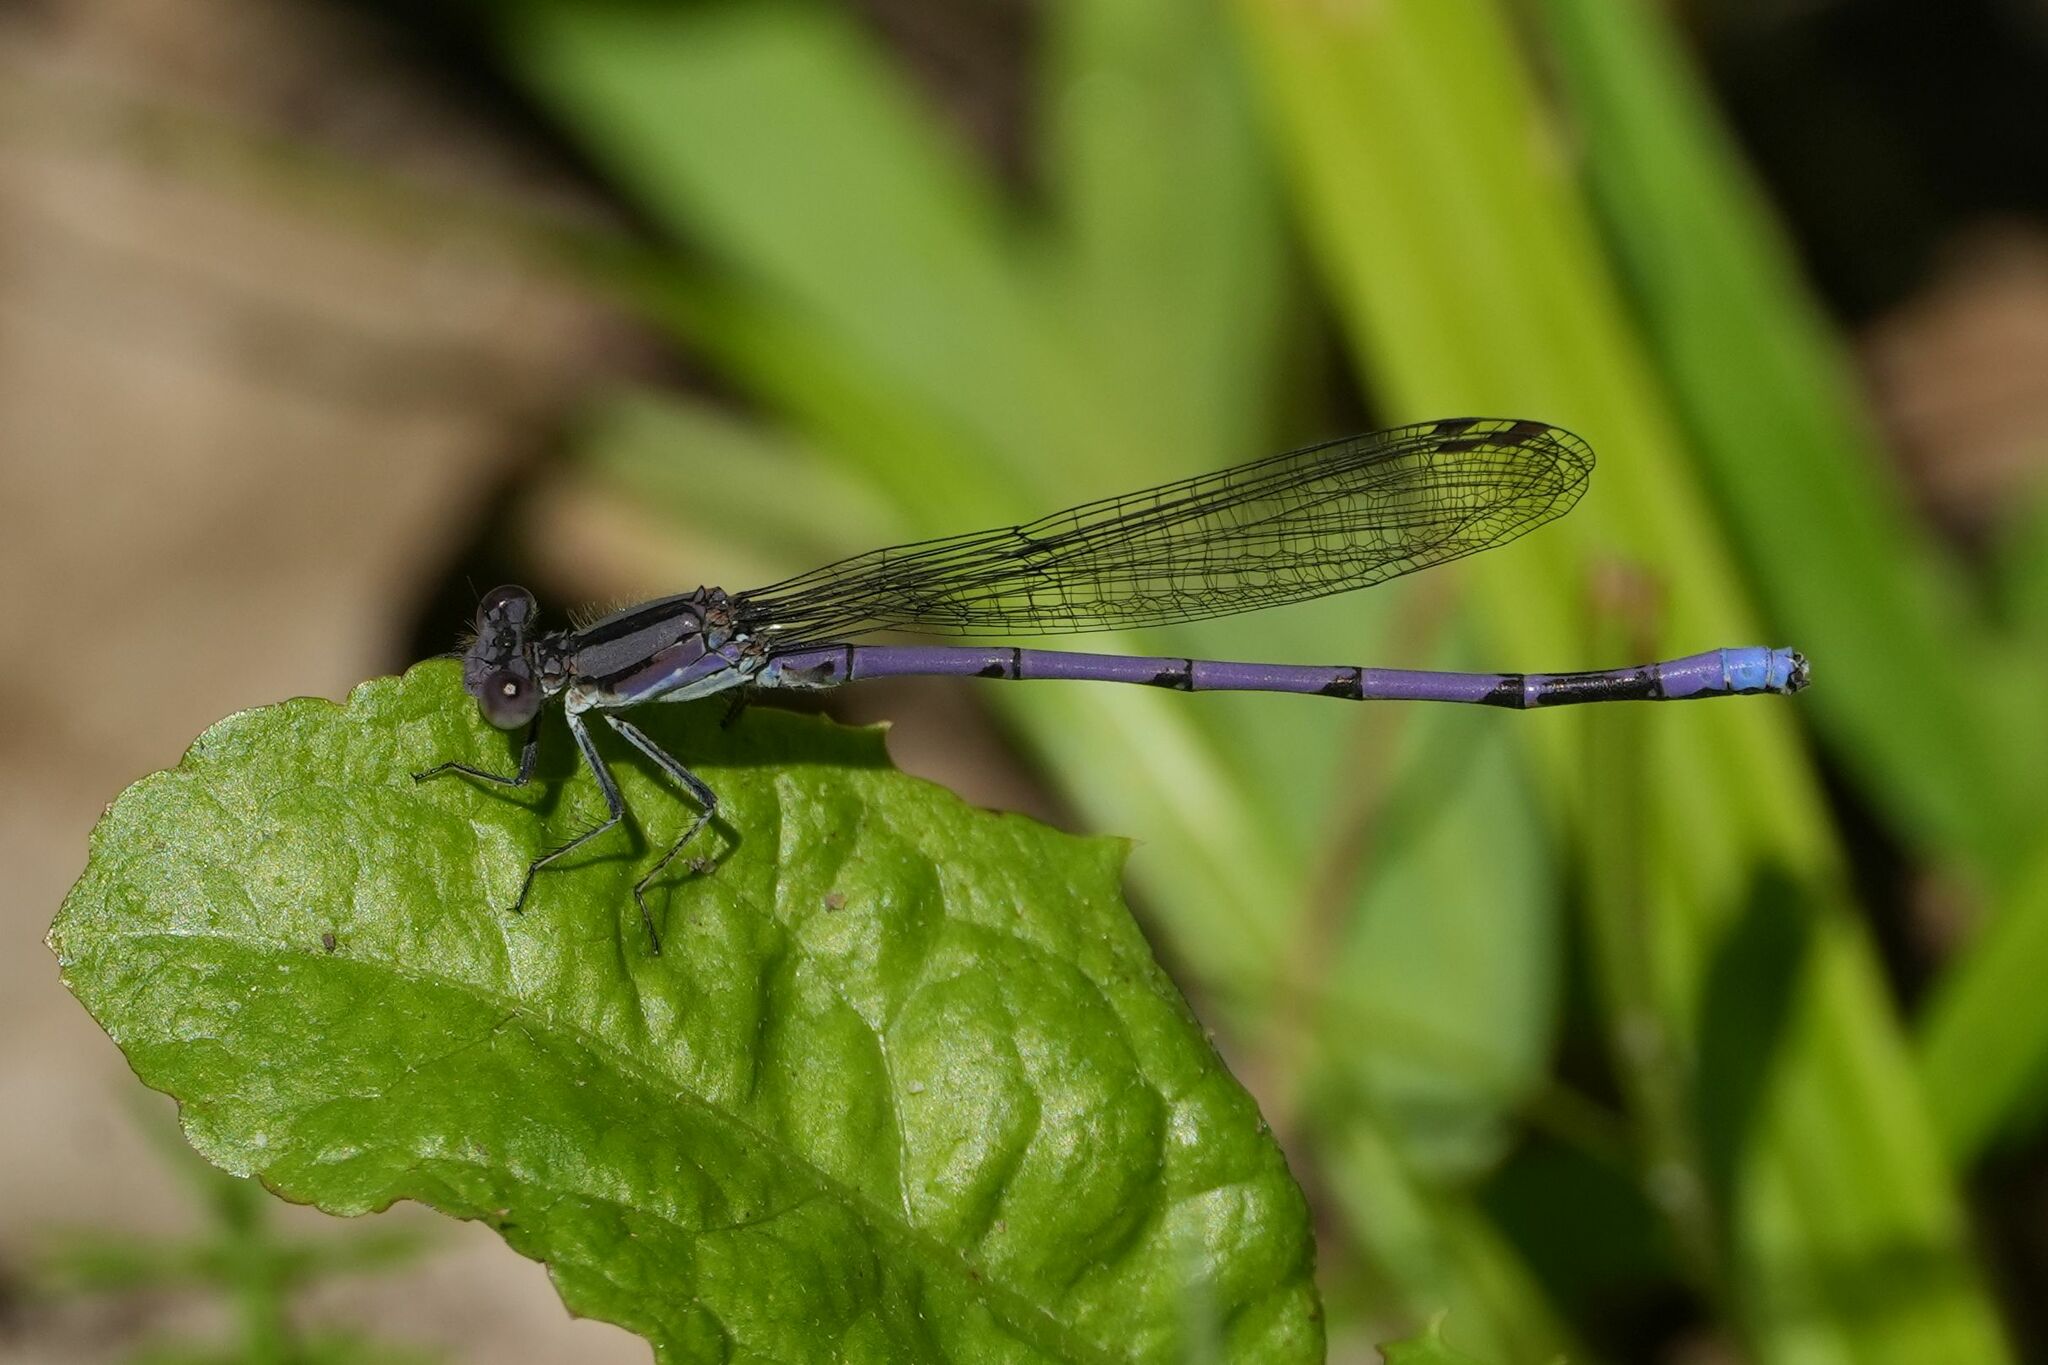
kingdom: Animalia
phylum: Arthropoda
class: Insecta
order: Odonata
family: Coenagrionidae
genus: Argia
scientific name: Argia fumipennis
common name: Variable dancer
